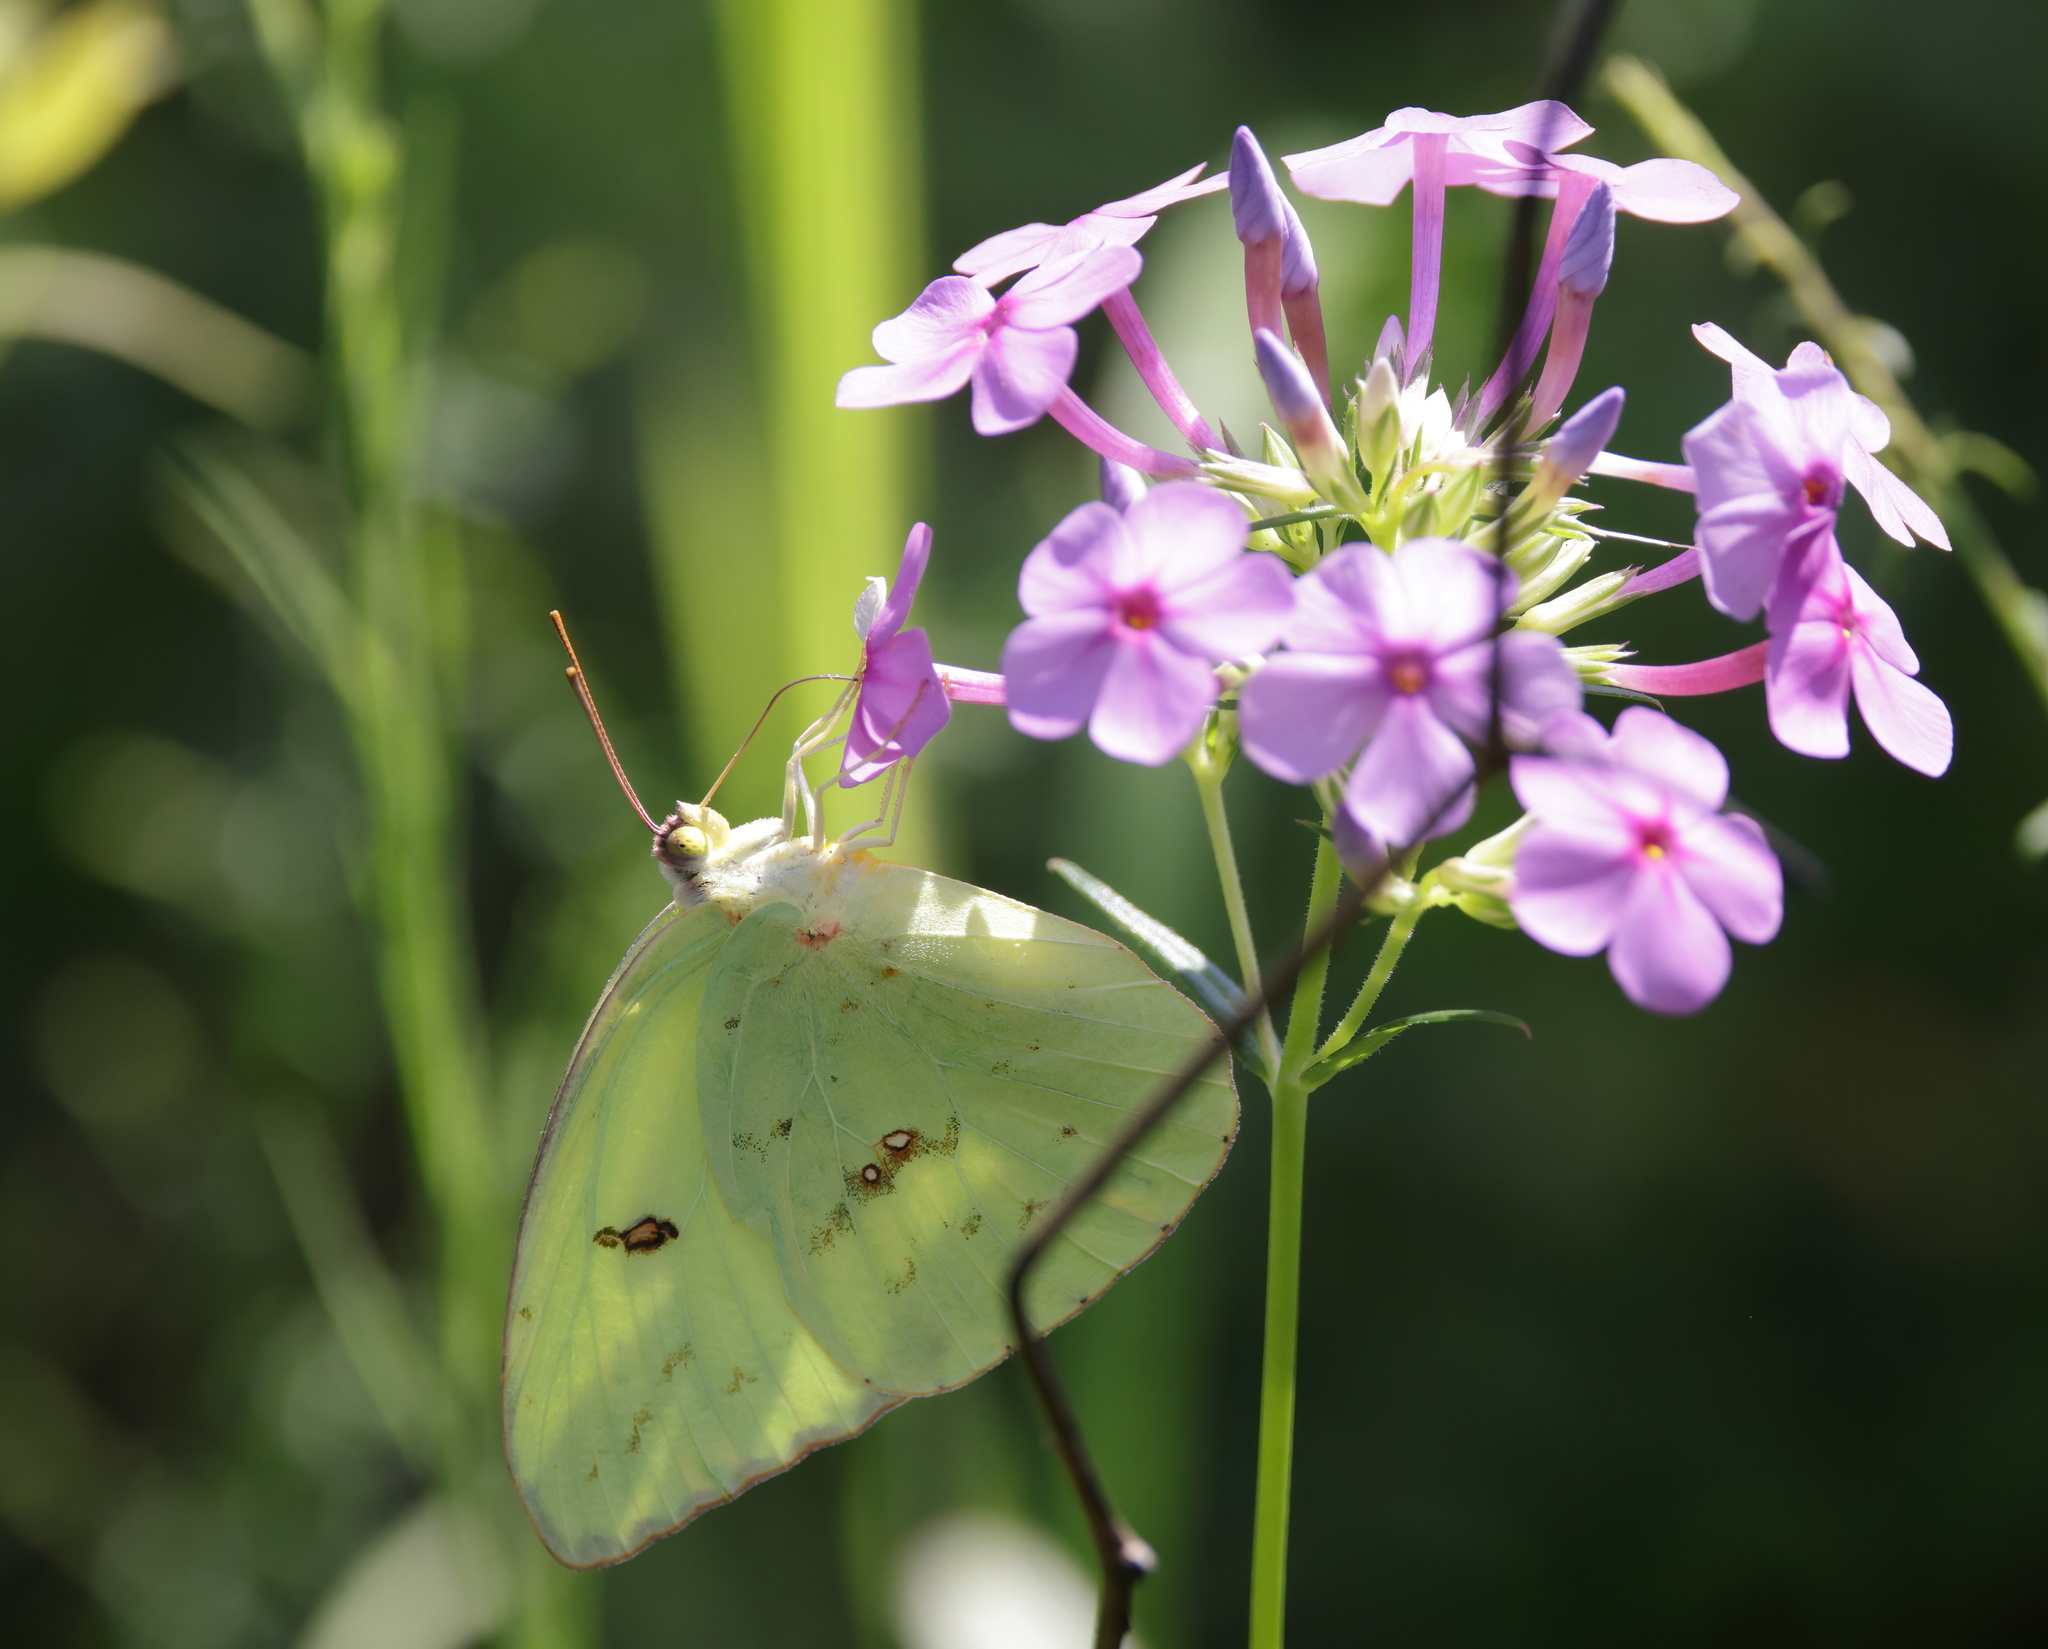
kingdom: Animalia
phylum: Arthropoda
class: Insecta
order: Lepidoptera
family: Pieridae
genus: Phoebis
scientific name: Phoebis sennae
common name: Cloudless sulphur
